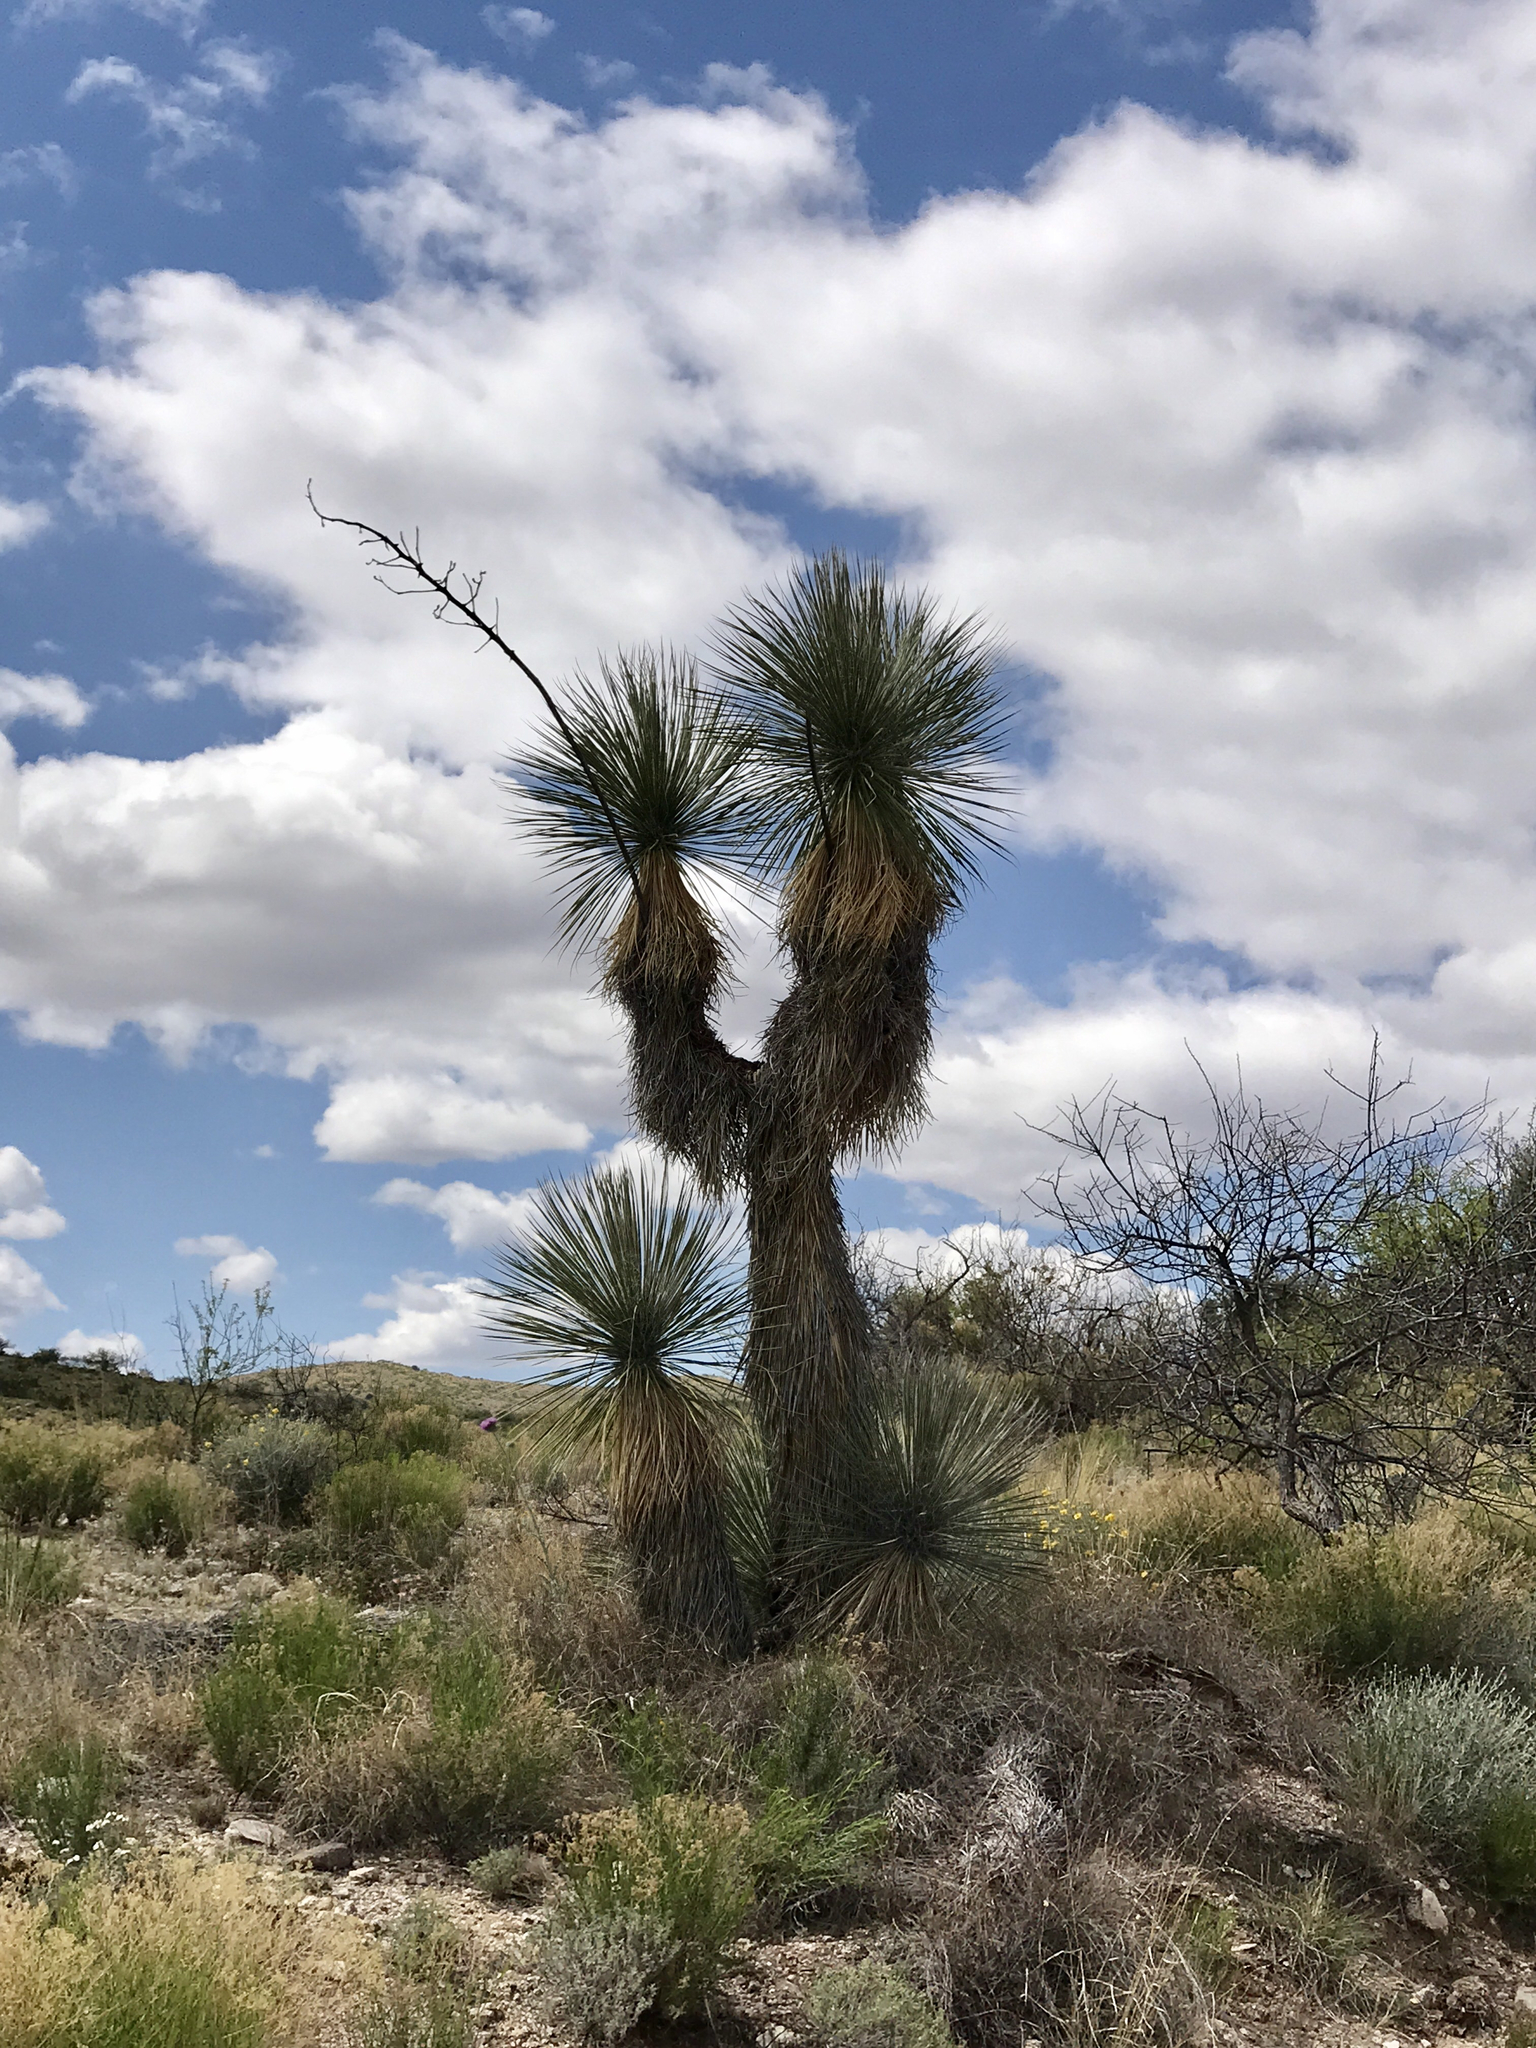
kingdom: Plantae
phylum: Tracheophyta
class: Liliopsida
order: Asparagales
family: Asparagaceae
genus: Yucca
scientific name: Yucca elata
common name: Palmella
